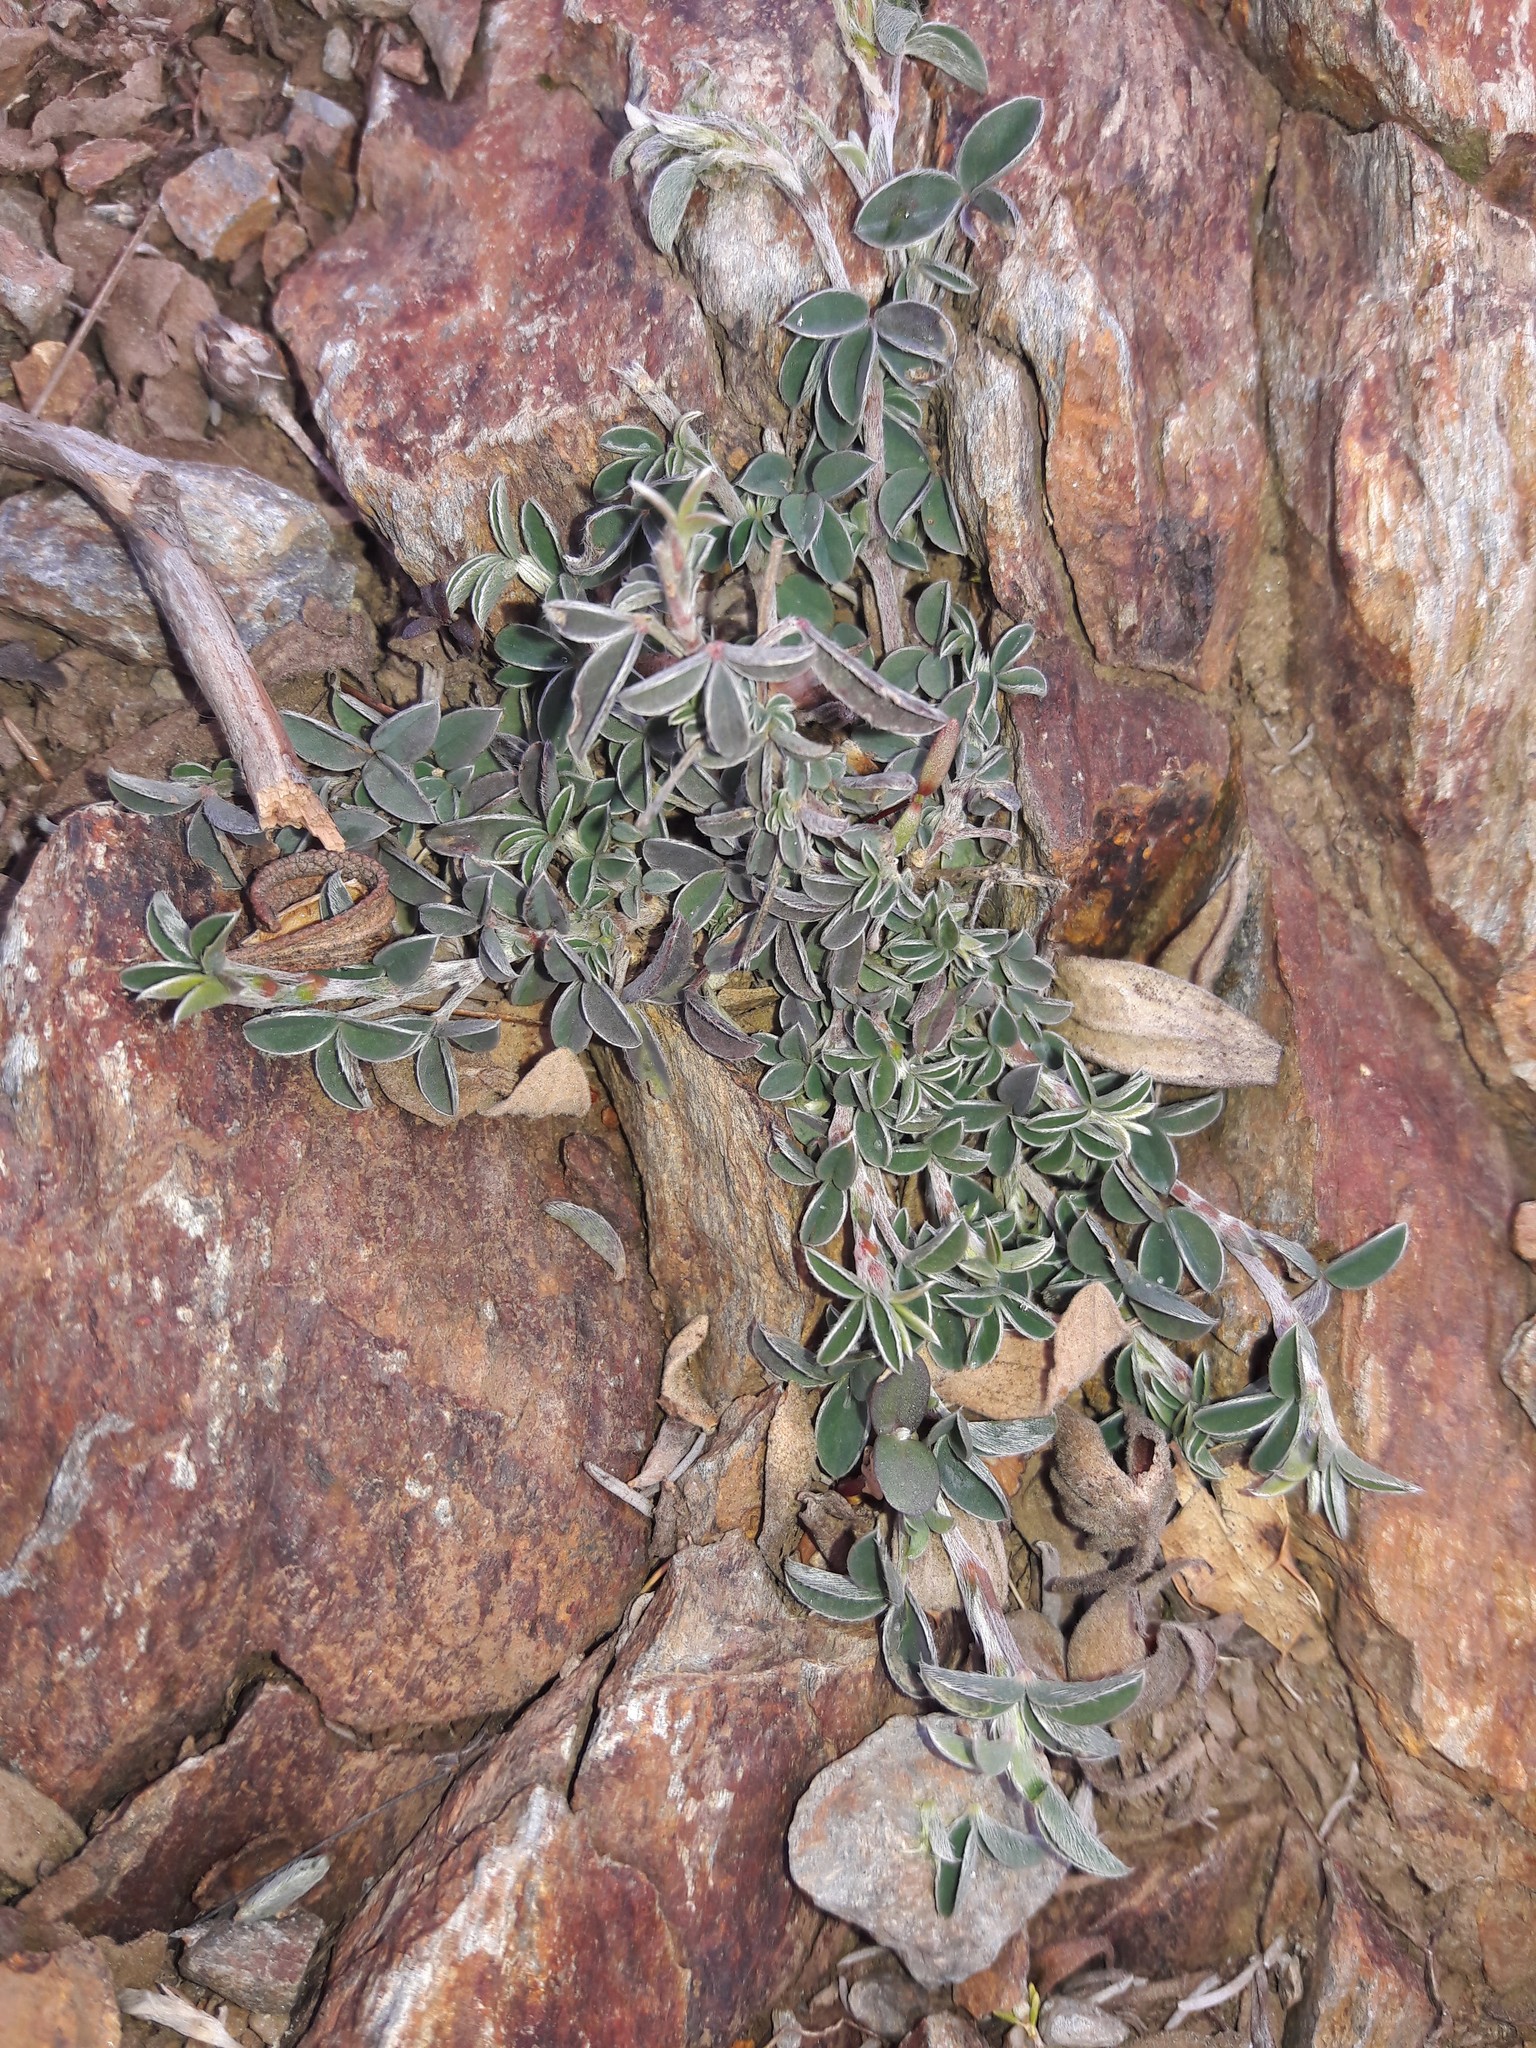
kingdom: Plantae
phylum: Tracheophyta
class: Magnoliopsida
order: Fabales
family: Fabaceae
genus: Argyrolobium
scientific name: Argyrolobium zanonii
